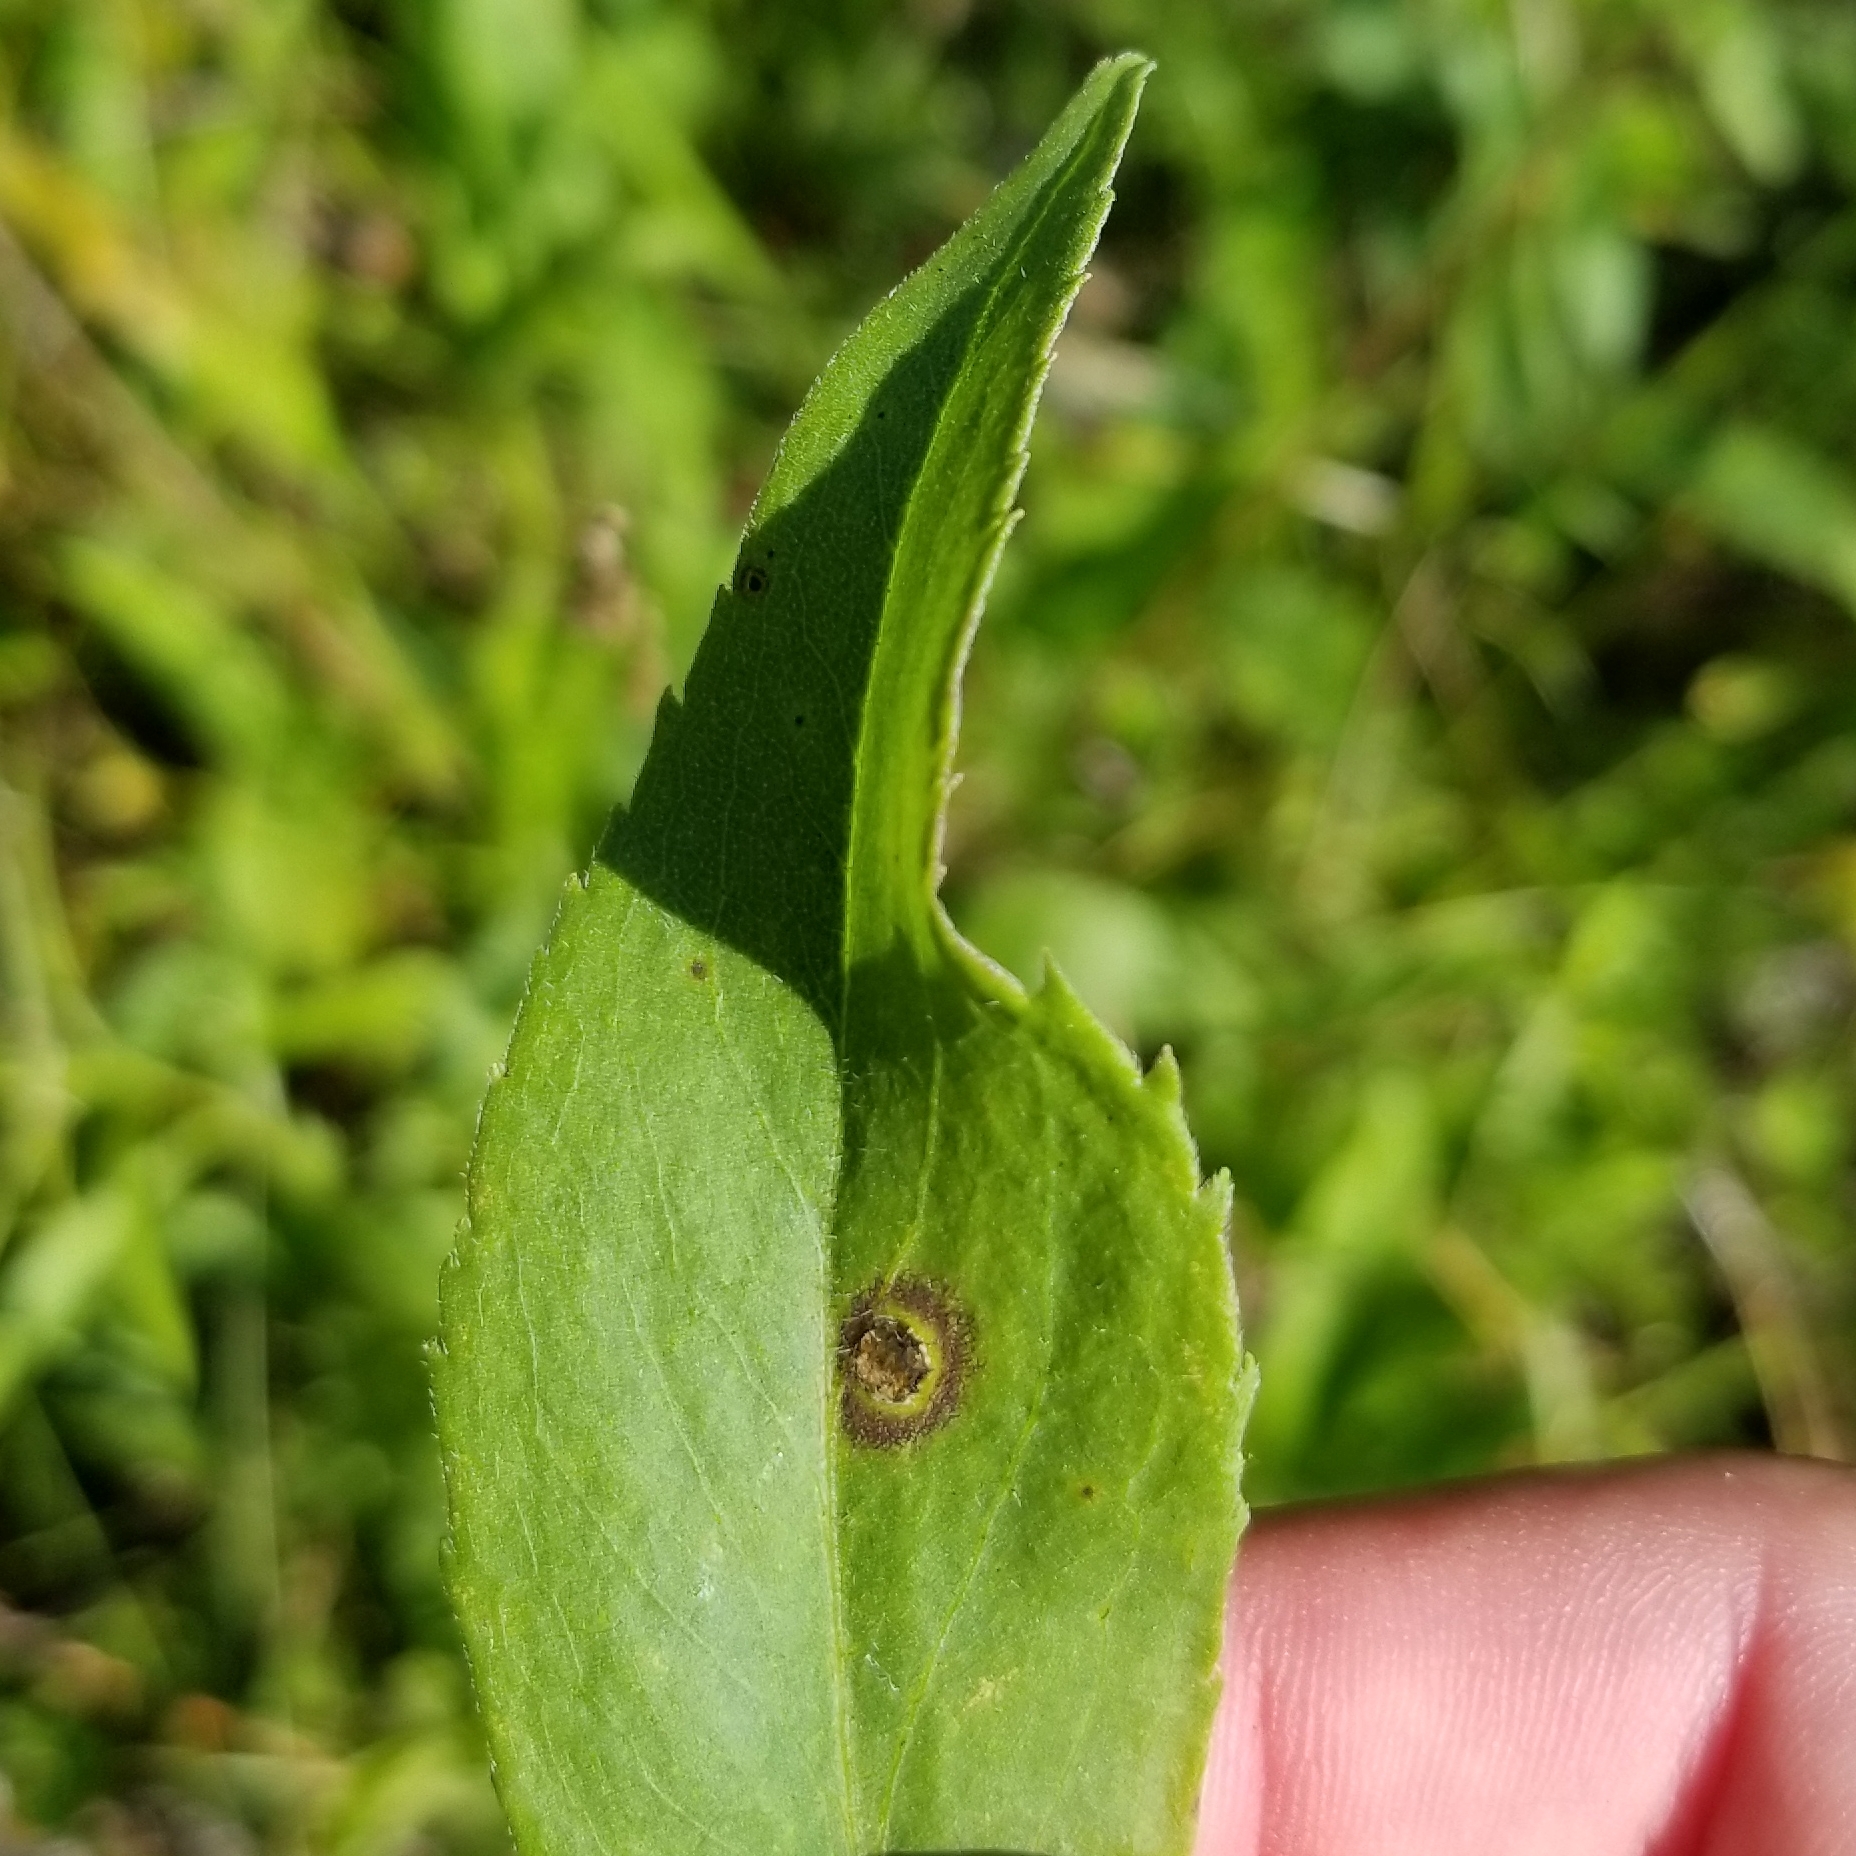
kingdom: Animalia
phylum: Arthropoda
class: Insecta
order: Diptera
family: Cecidomyiidae
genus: Asteromyia
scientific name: Asteromyia carbonifera
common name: Carbonifera goldenrod gall midge
